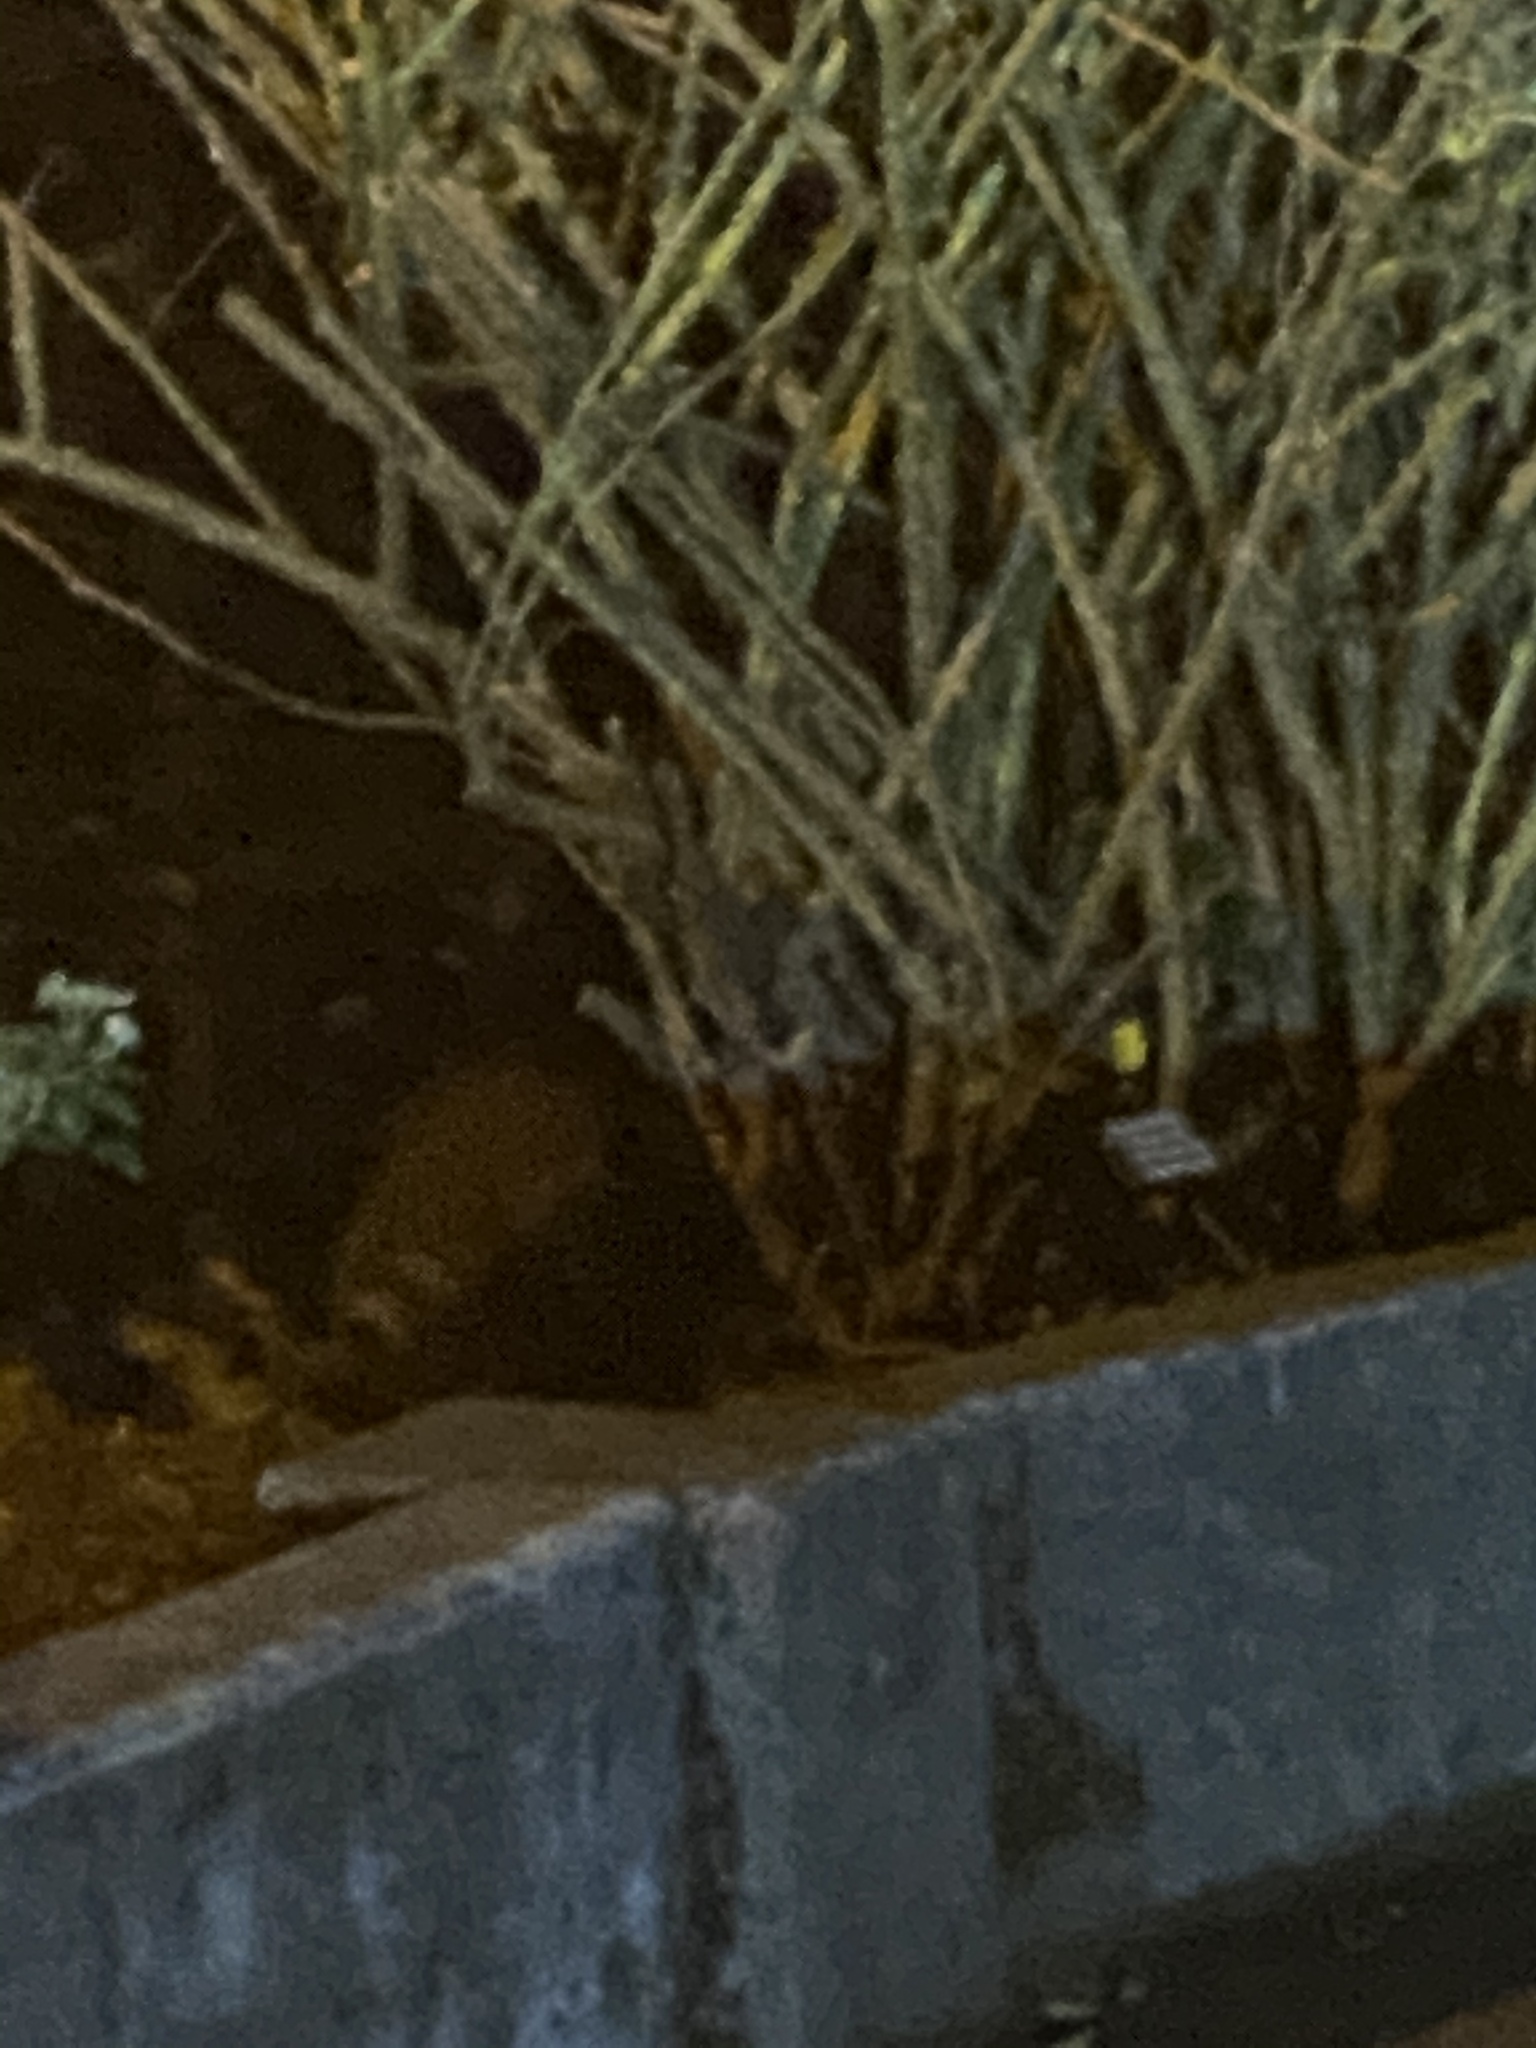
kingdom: Animalia
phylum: Chordata
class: Mammalia
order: Carnivora
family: Procyonidae
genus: Procyon
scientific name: Procyon lotor
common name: Raccoon
